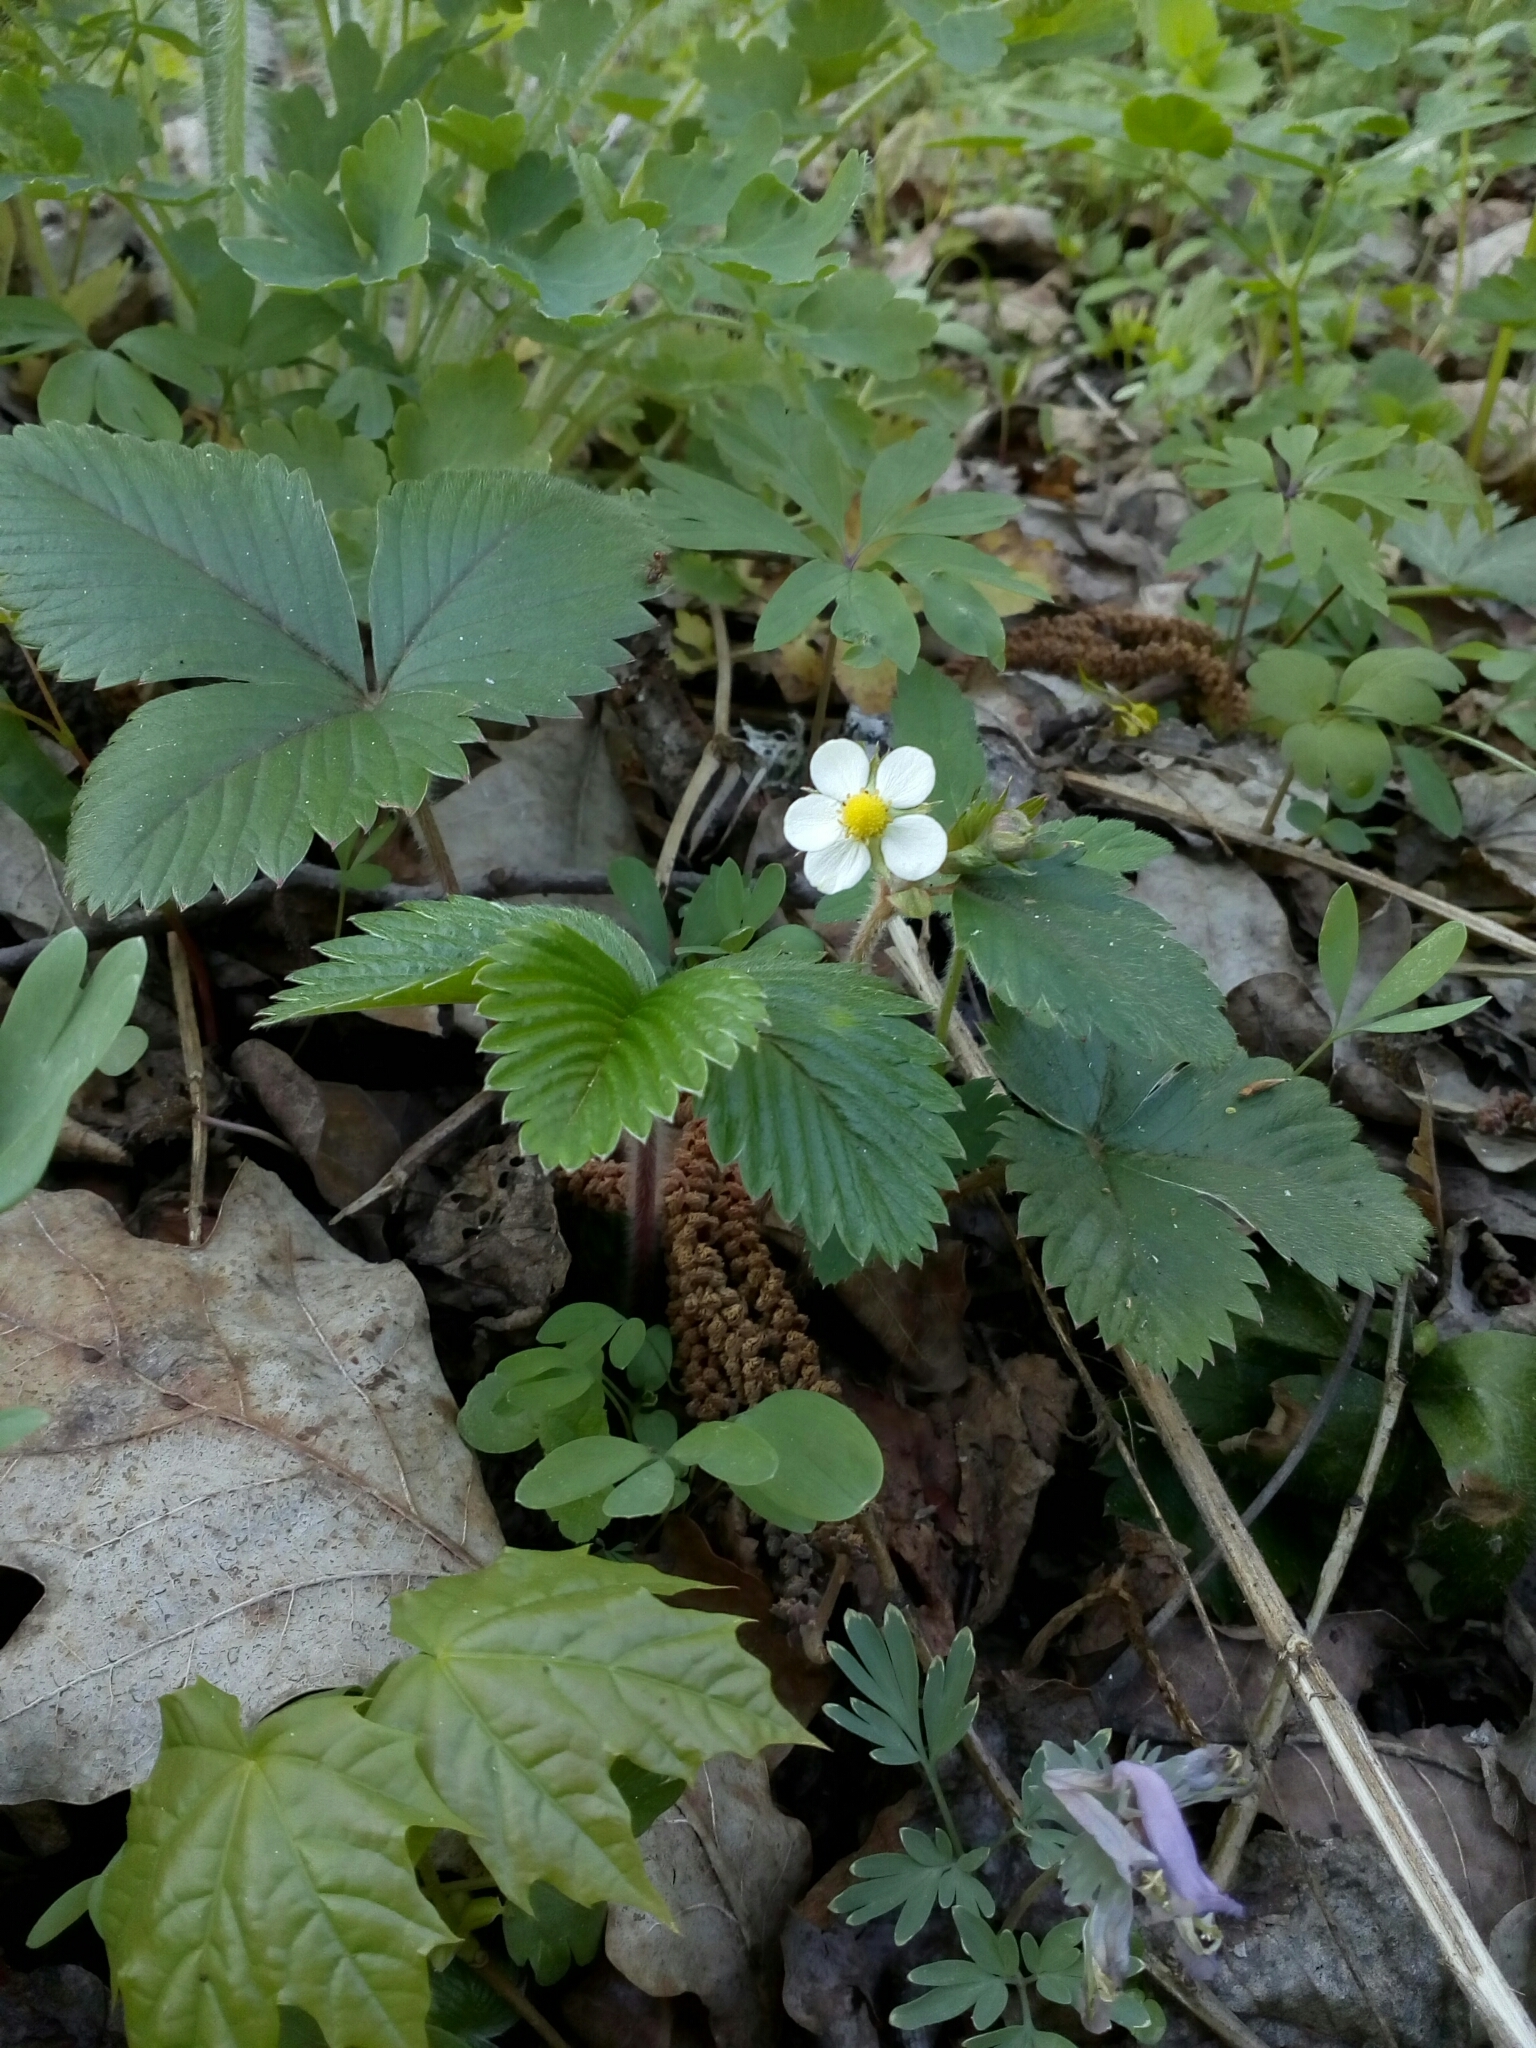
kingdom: Plantae
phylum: Tracheophyta
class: Magnoliopsida
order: Rosales
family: Rosaceae
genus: Fragaria
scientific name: Fragaria vesca
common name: Wild strawberry
